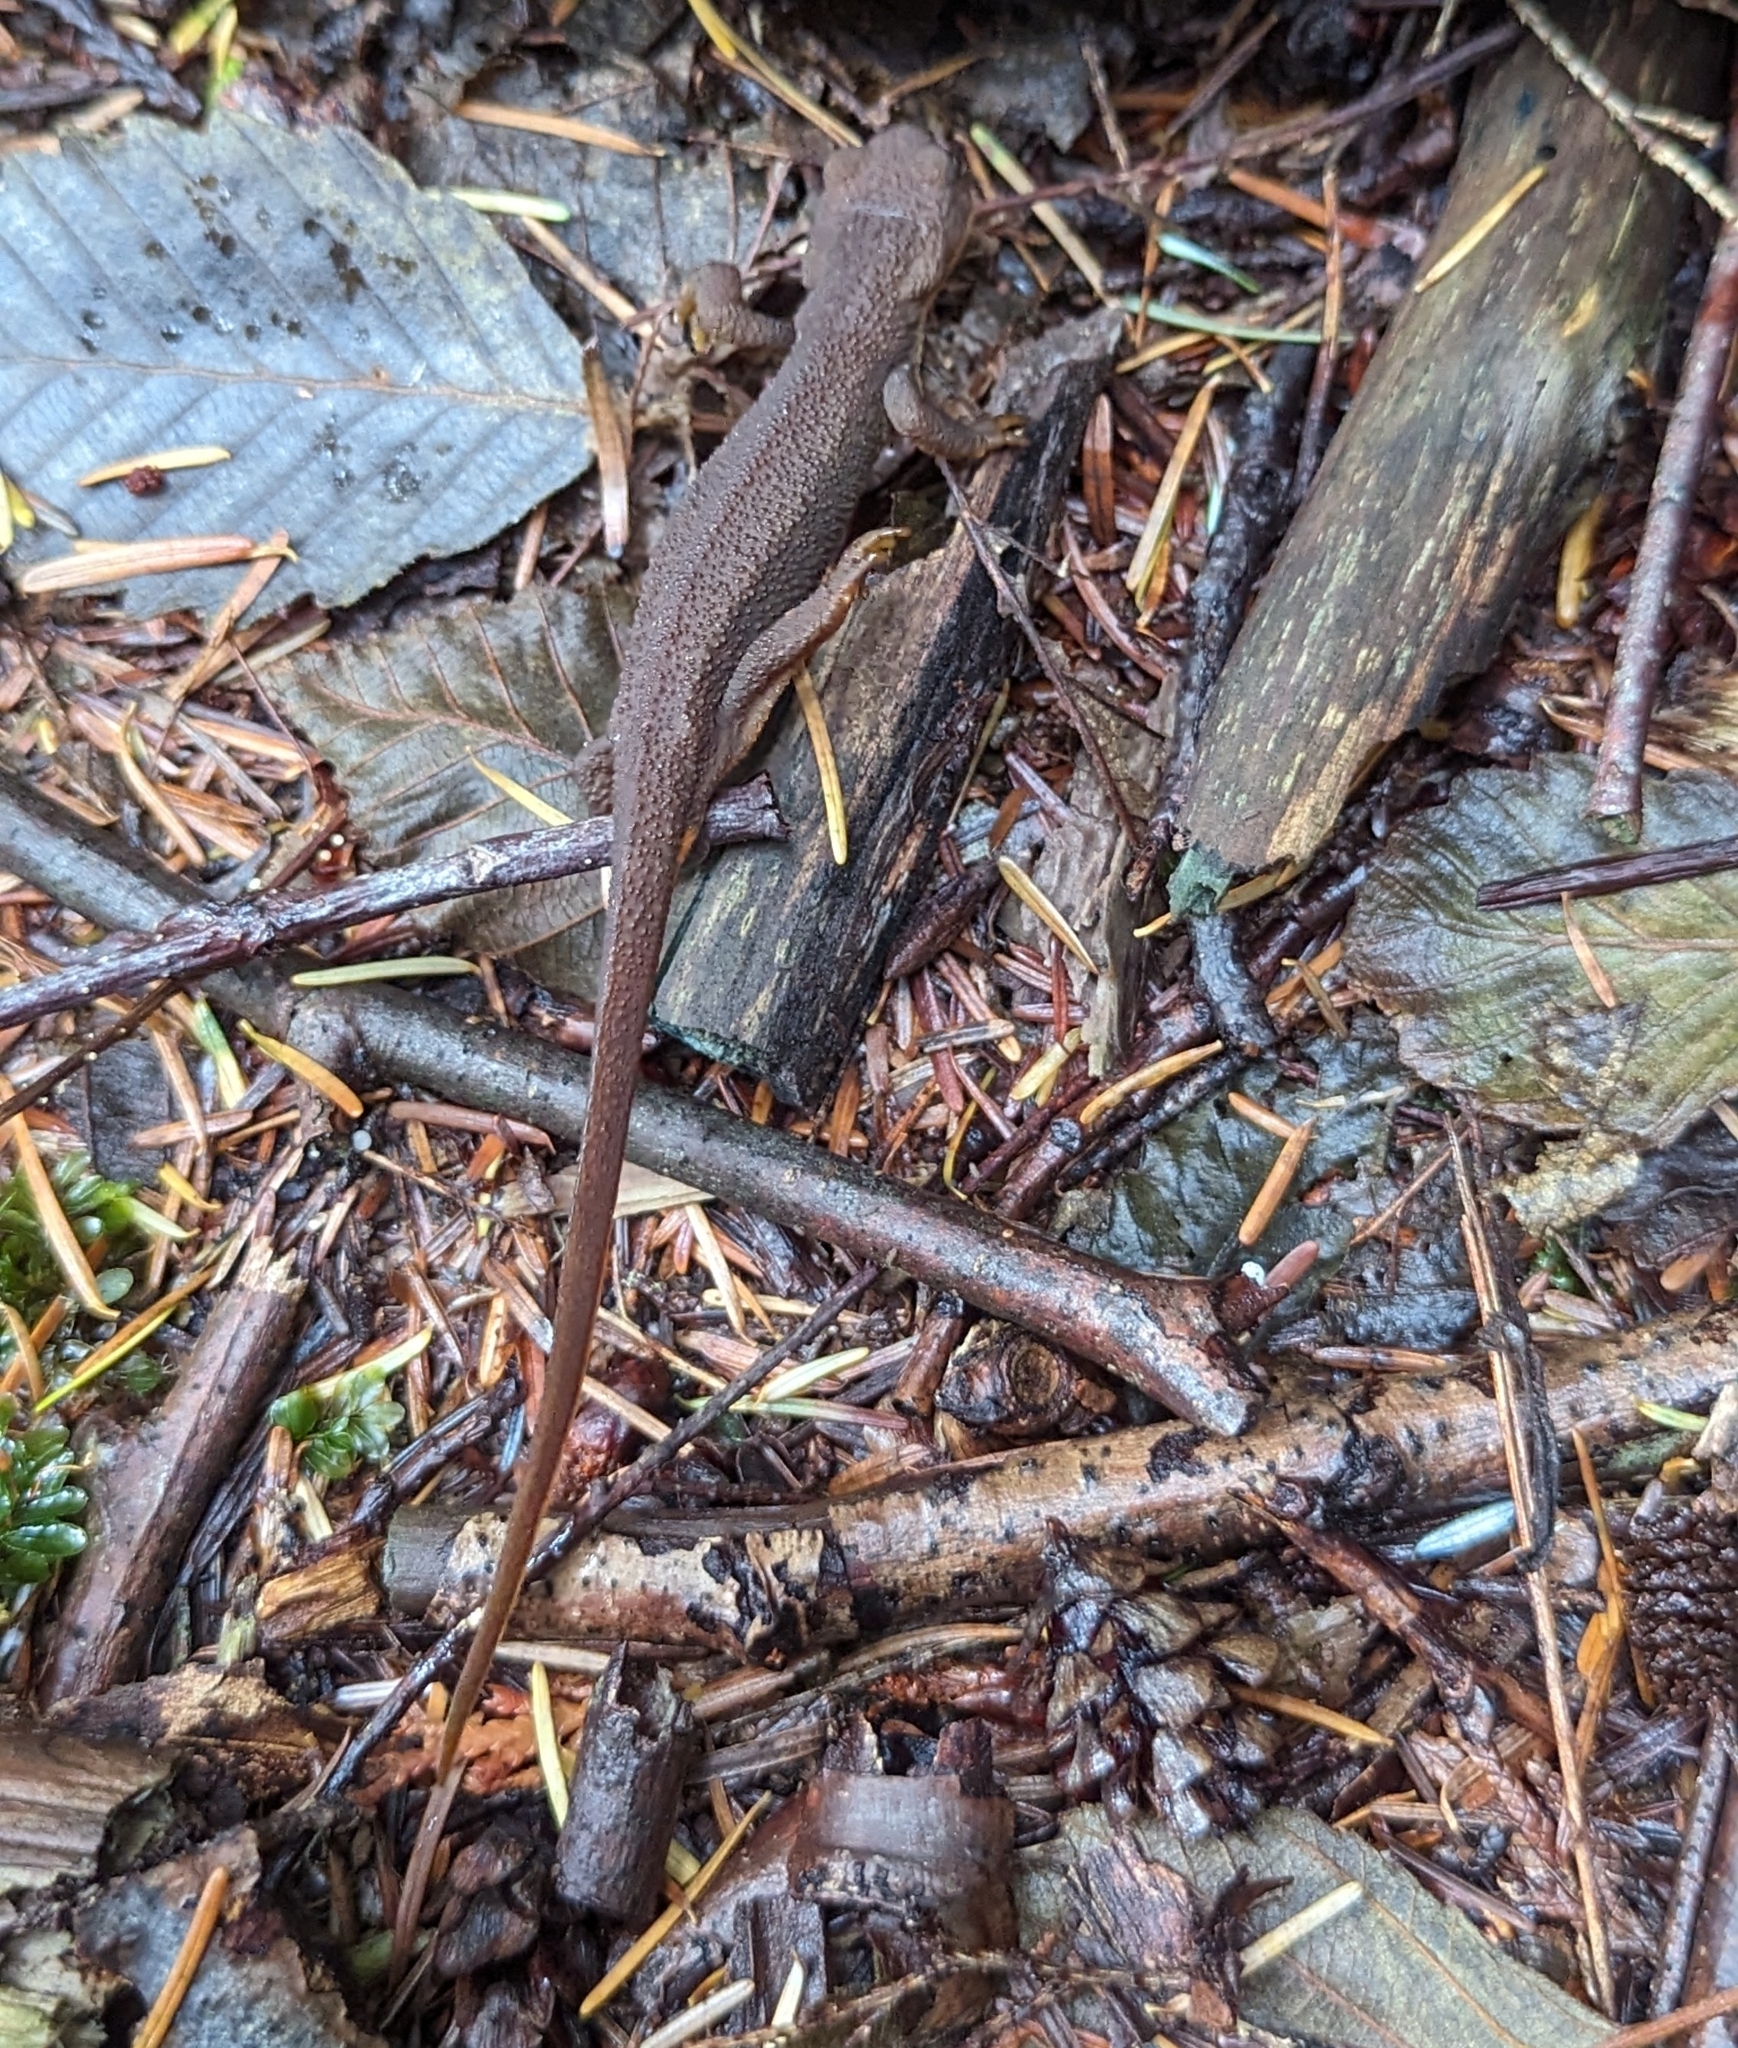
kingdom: Animalia
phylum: Chordata
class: Amphibia
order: Caudata
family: Salamandridae
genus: Taricha
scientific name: Taricha granulosa
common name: Roughskin newt
